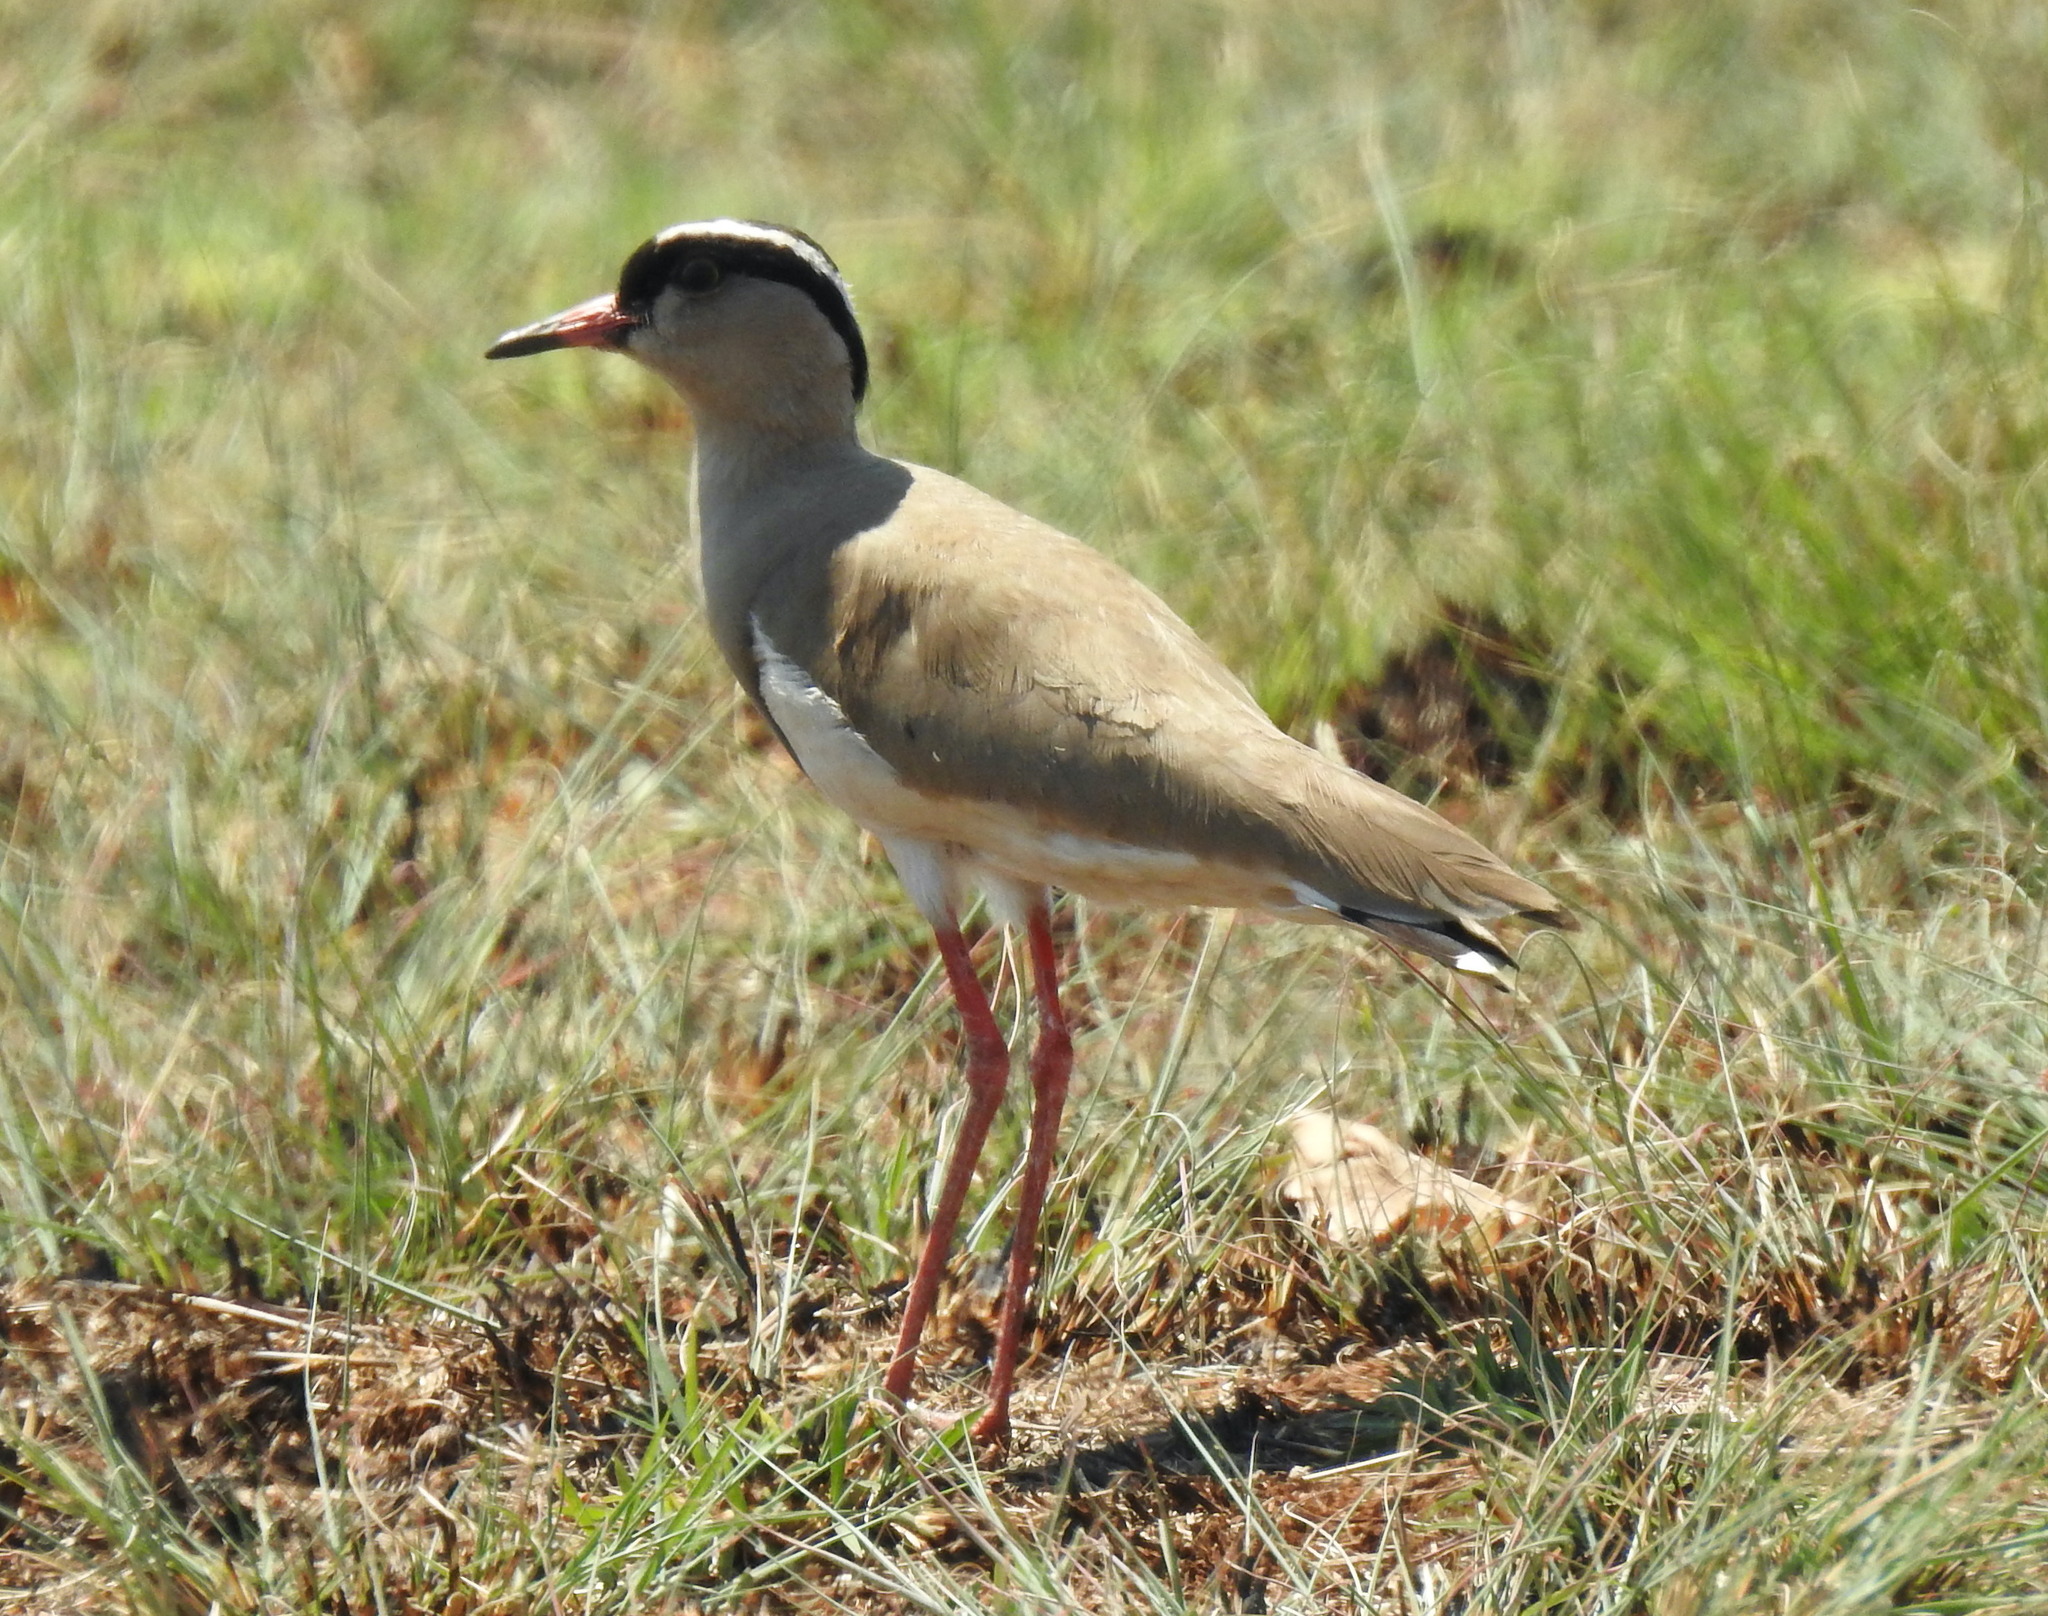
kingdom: Animalia
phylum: Chordata
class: Aves
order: Charadriiformes
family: Charadriidae
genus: Vanellus
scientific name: Vanellus coronatus
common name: Crowned lapwing
